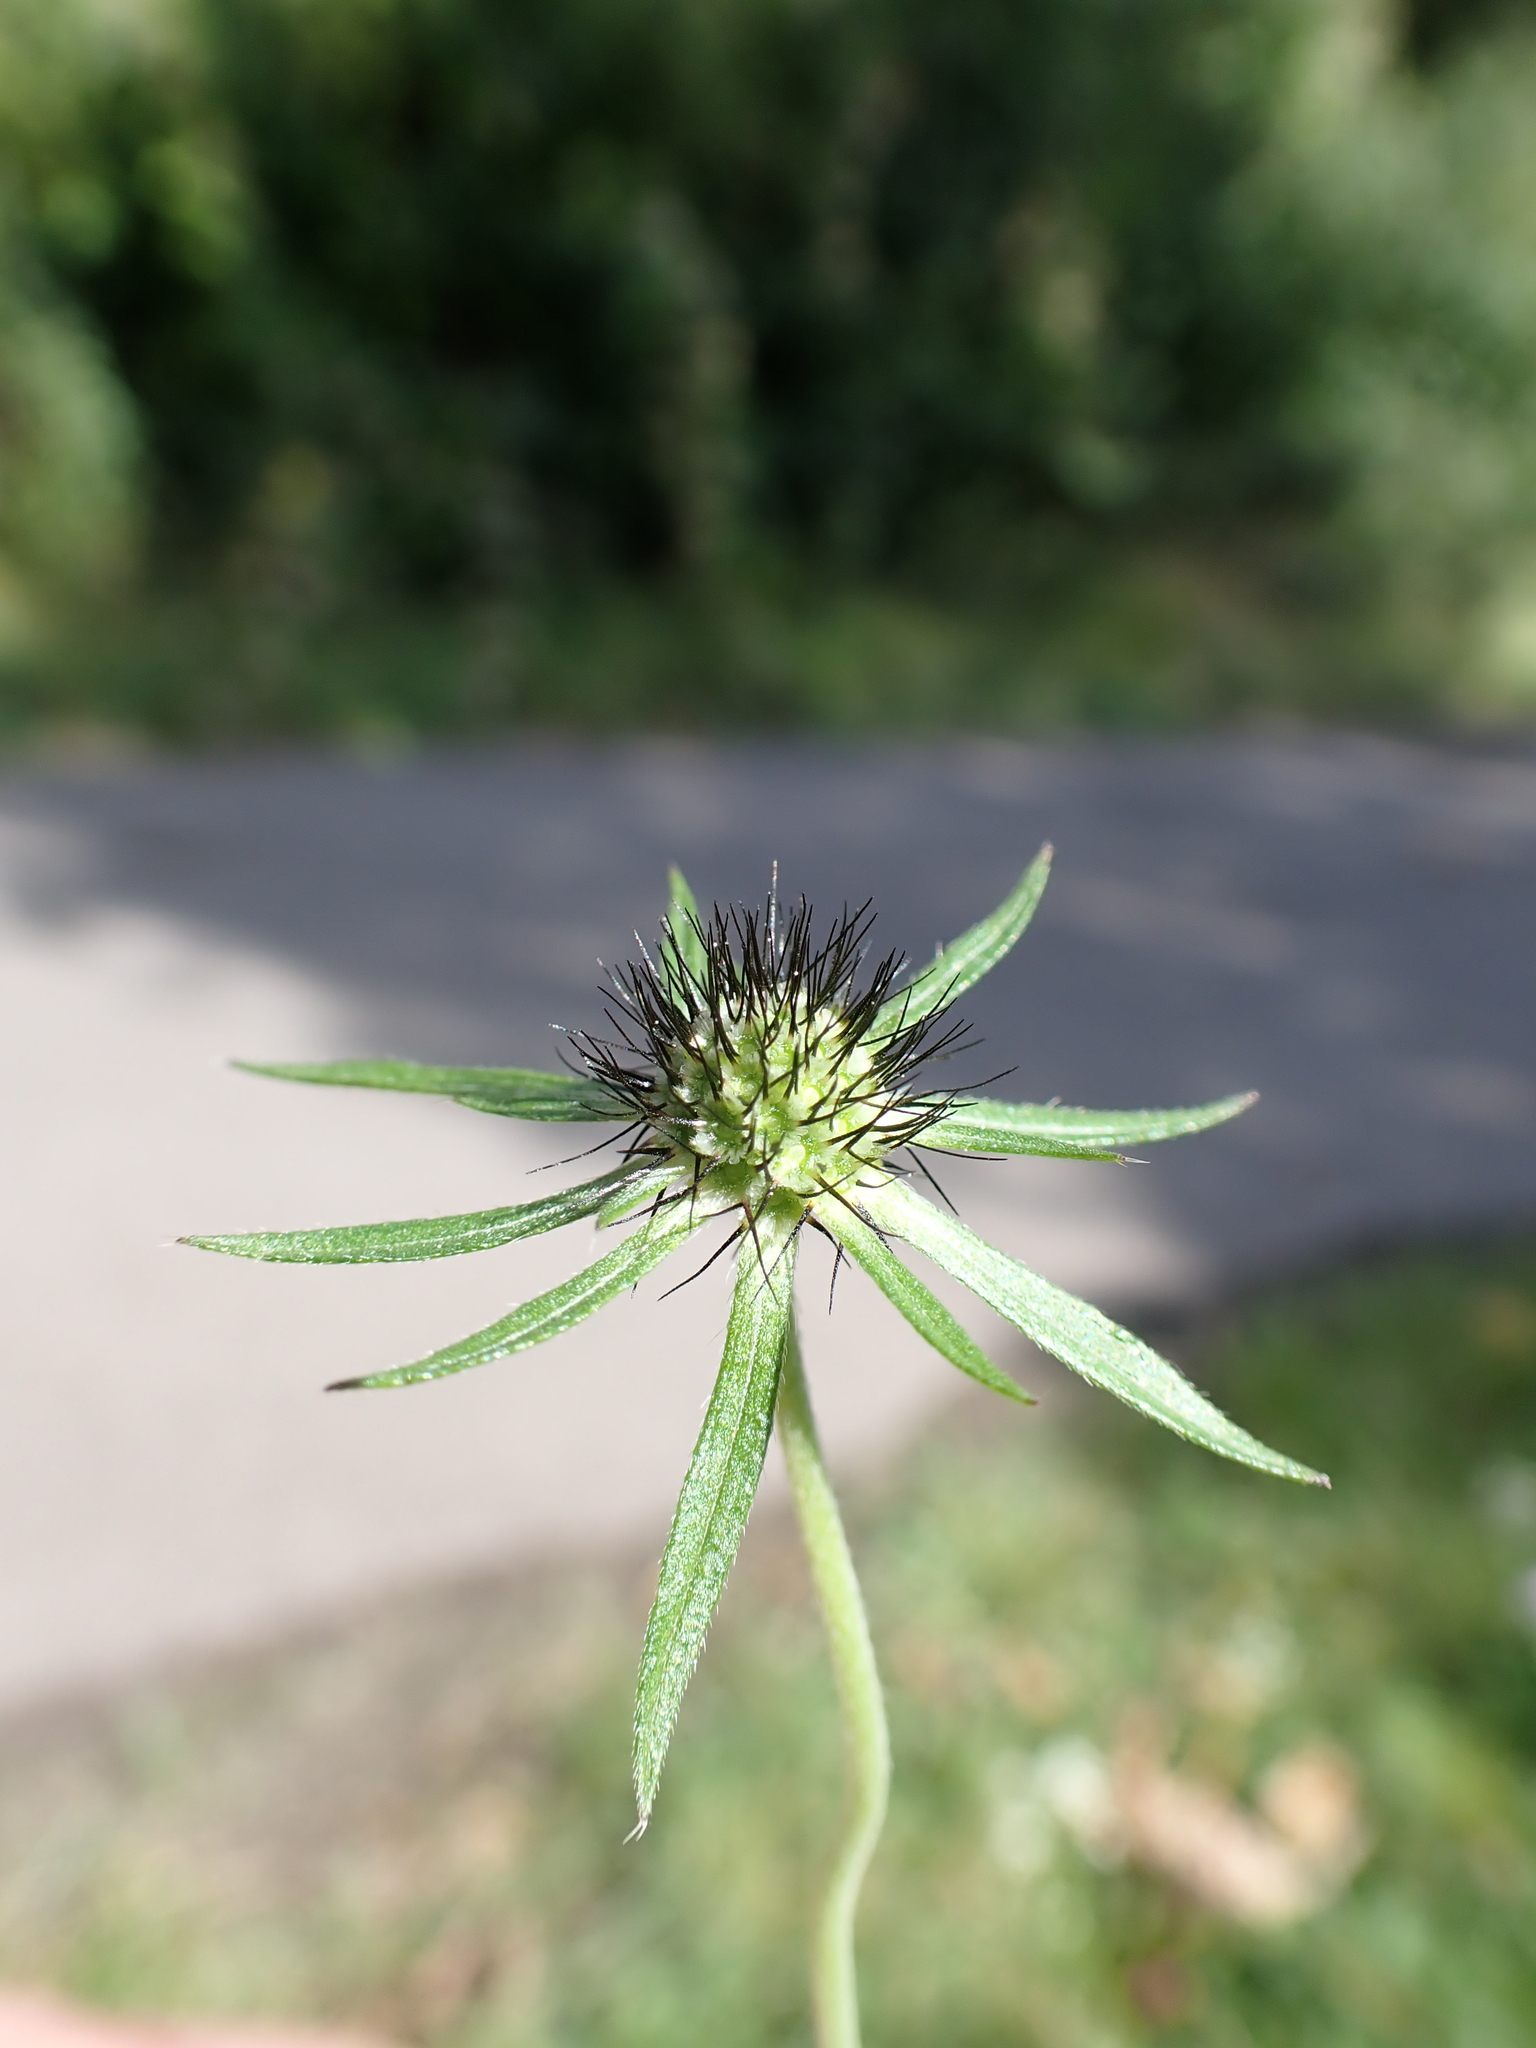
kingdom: Plantae
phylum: Tracheophyta
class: Magnoliopsida
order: Dipsacales
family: Caprifoliaceae
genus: Scabiosa
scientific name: Scabiosa columbaria
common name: Small scabious
